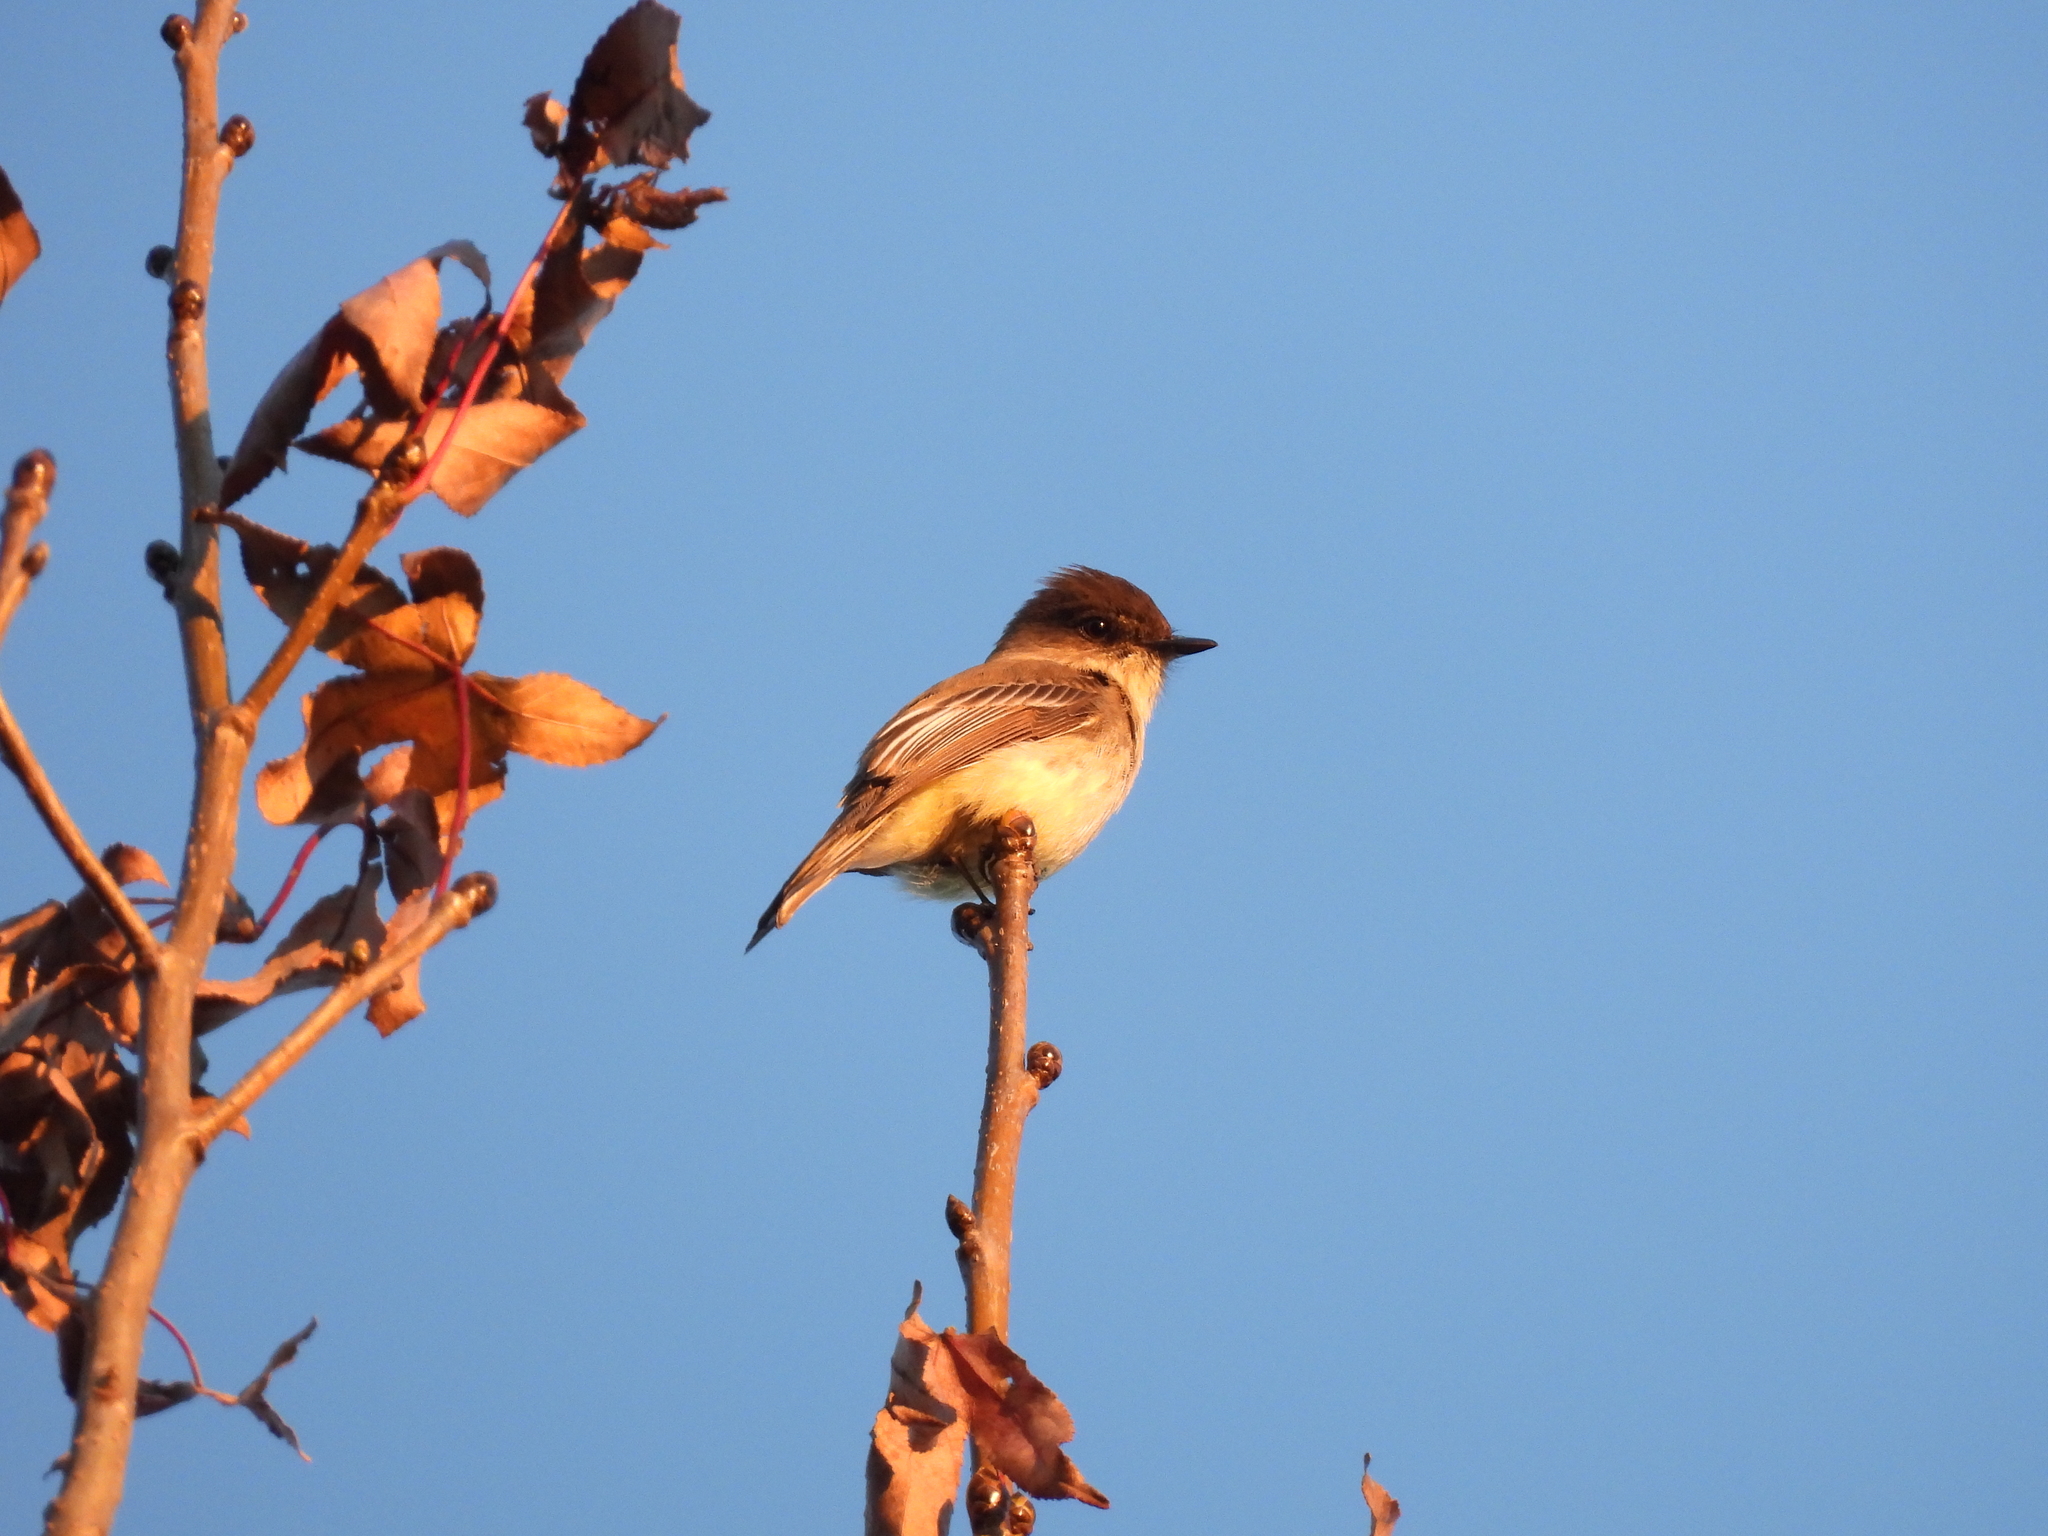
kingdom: Animalia
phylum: Chordata
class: Aves
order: Passeriformes
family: Tyrannidae
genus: Sayornis
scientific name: Sayornis phoebe
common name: Eastern phoebe
